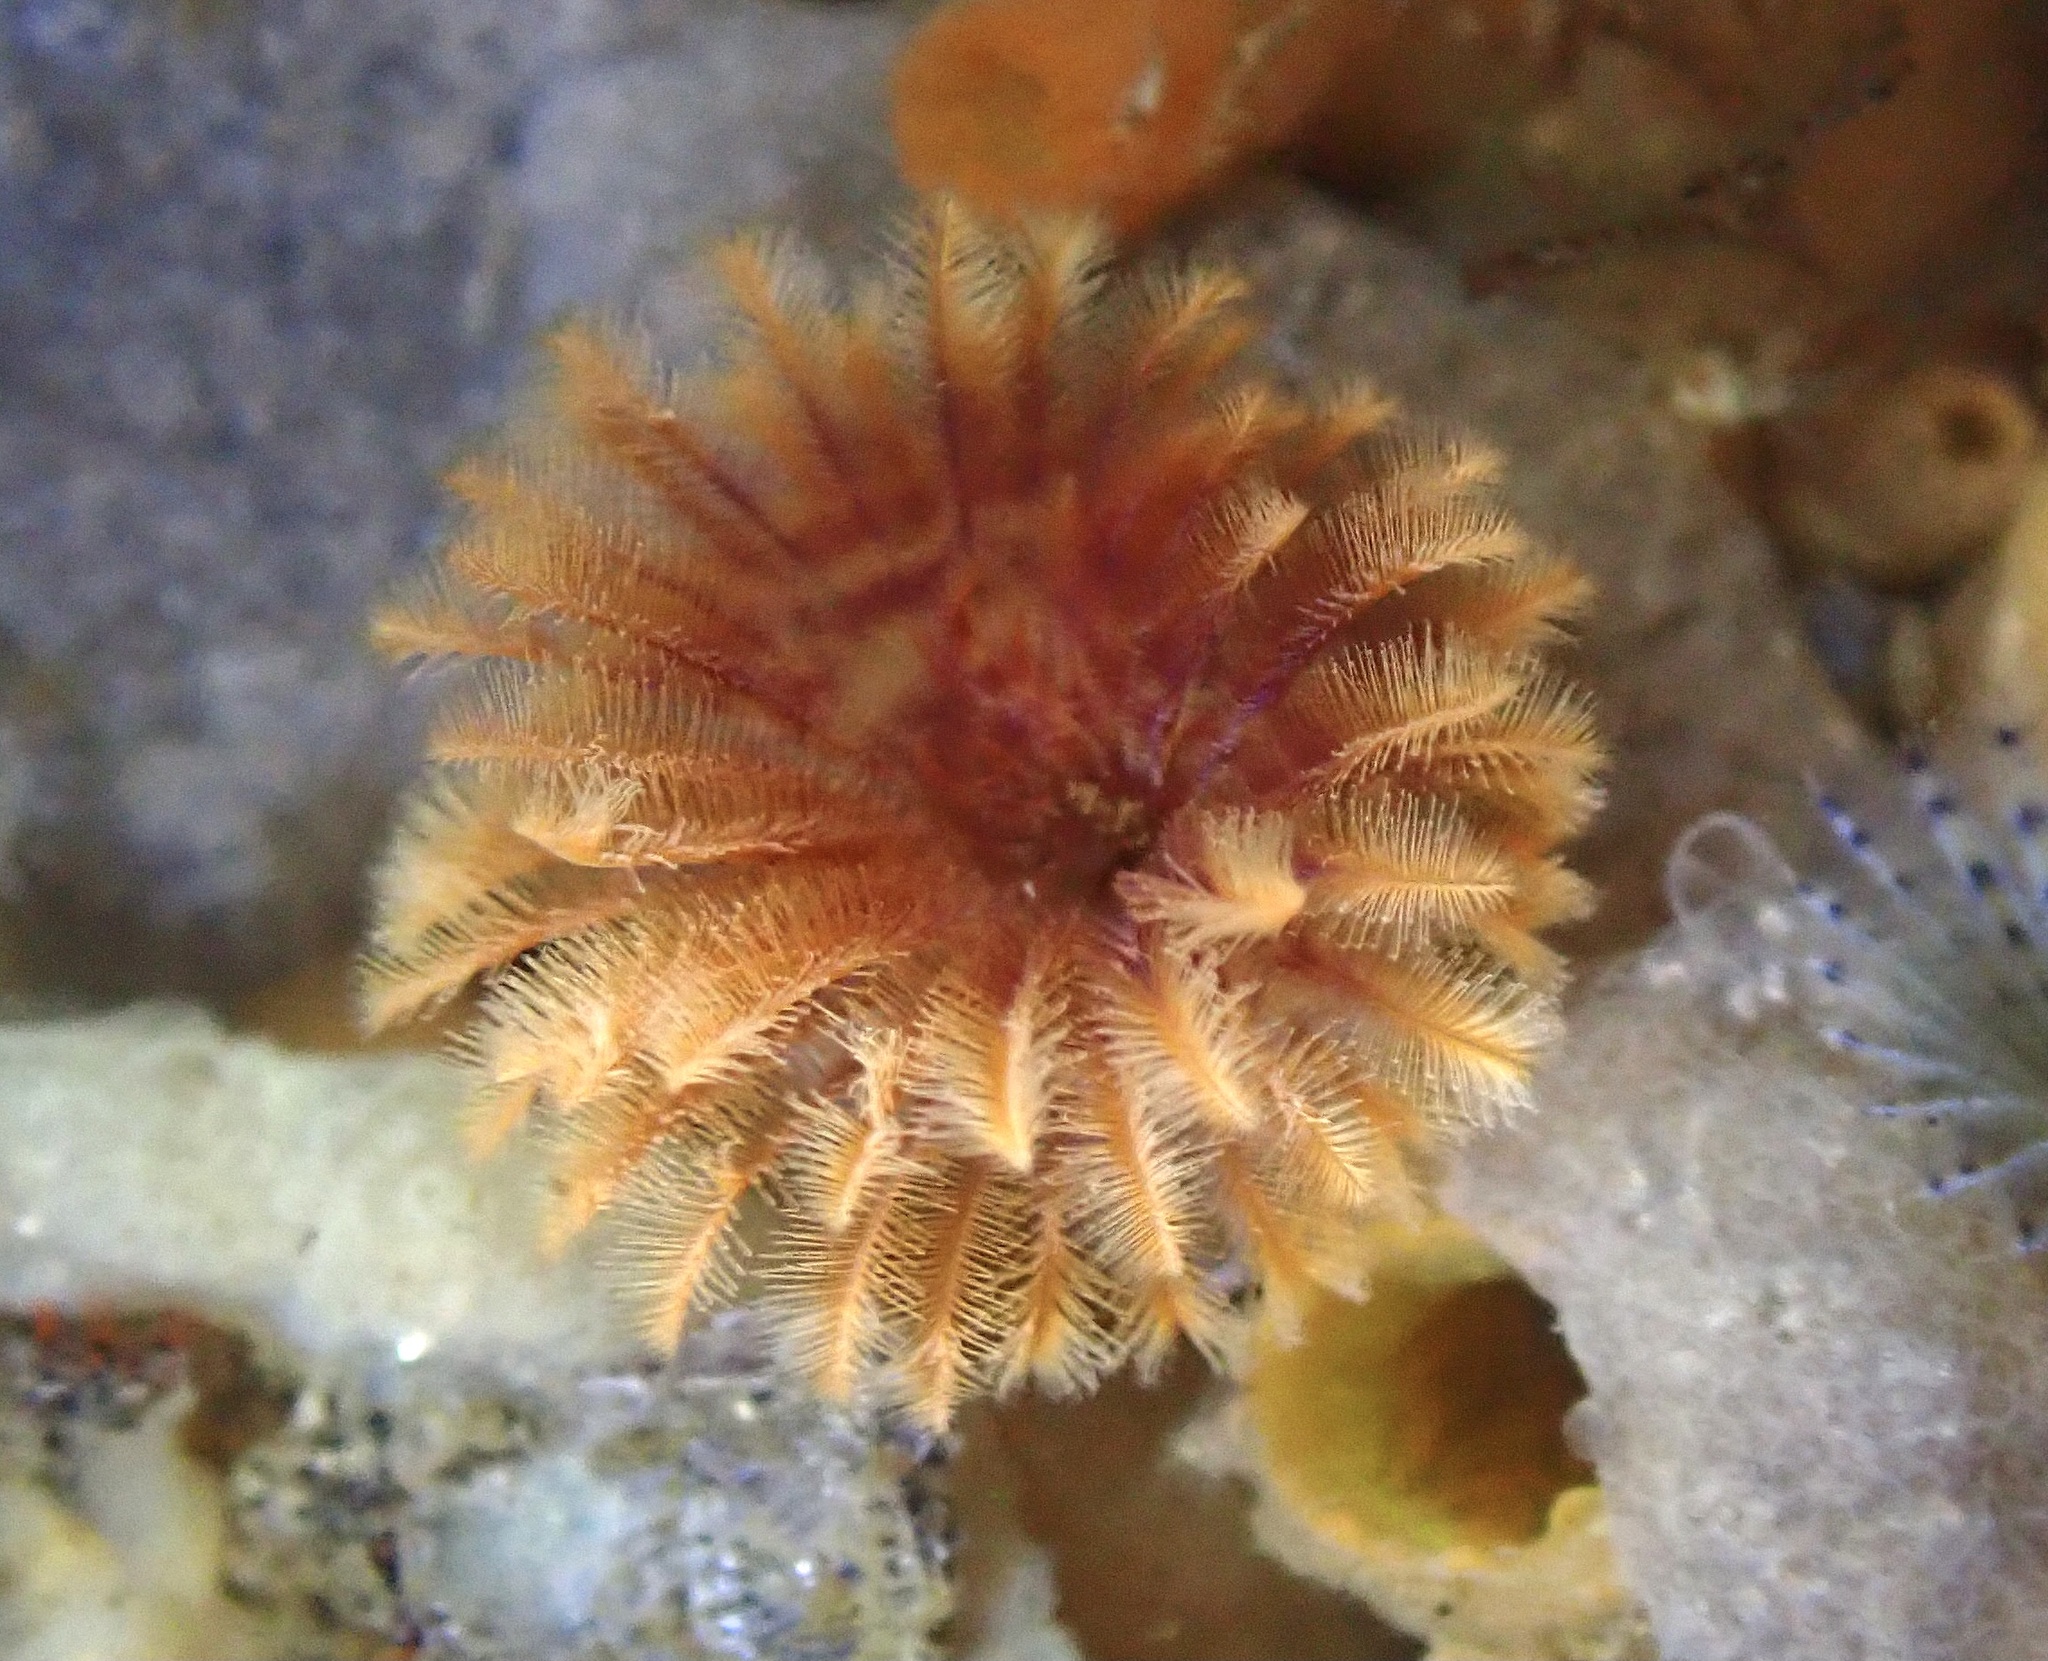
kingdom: Animalia
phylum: Annelida
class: Polychaeta
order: Sabellida
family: Sabellidae
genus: Eudistylia
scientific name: Eudistylia polymorpha
